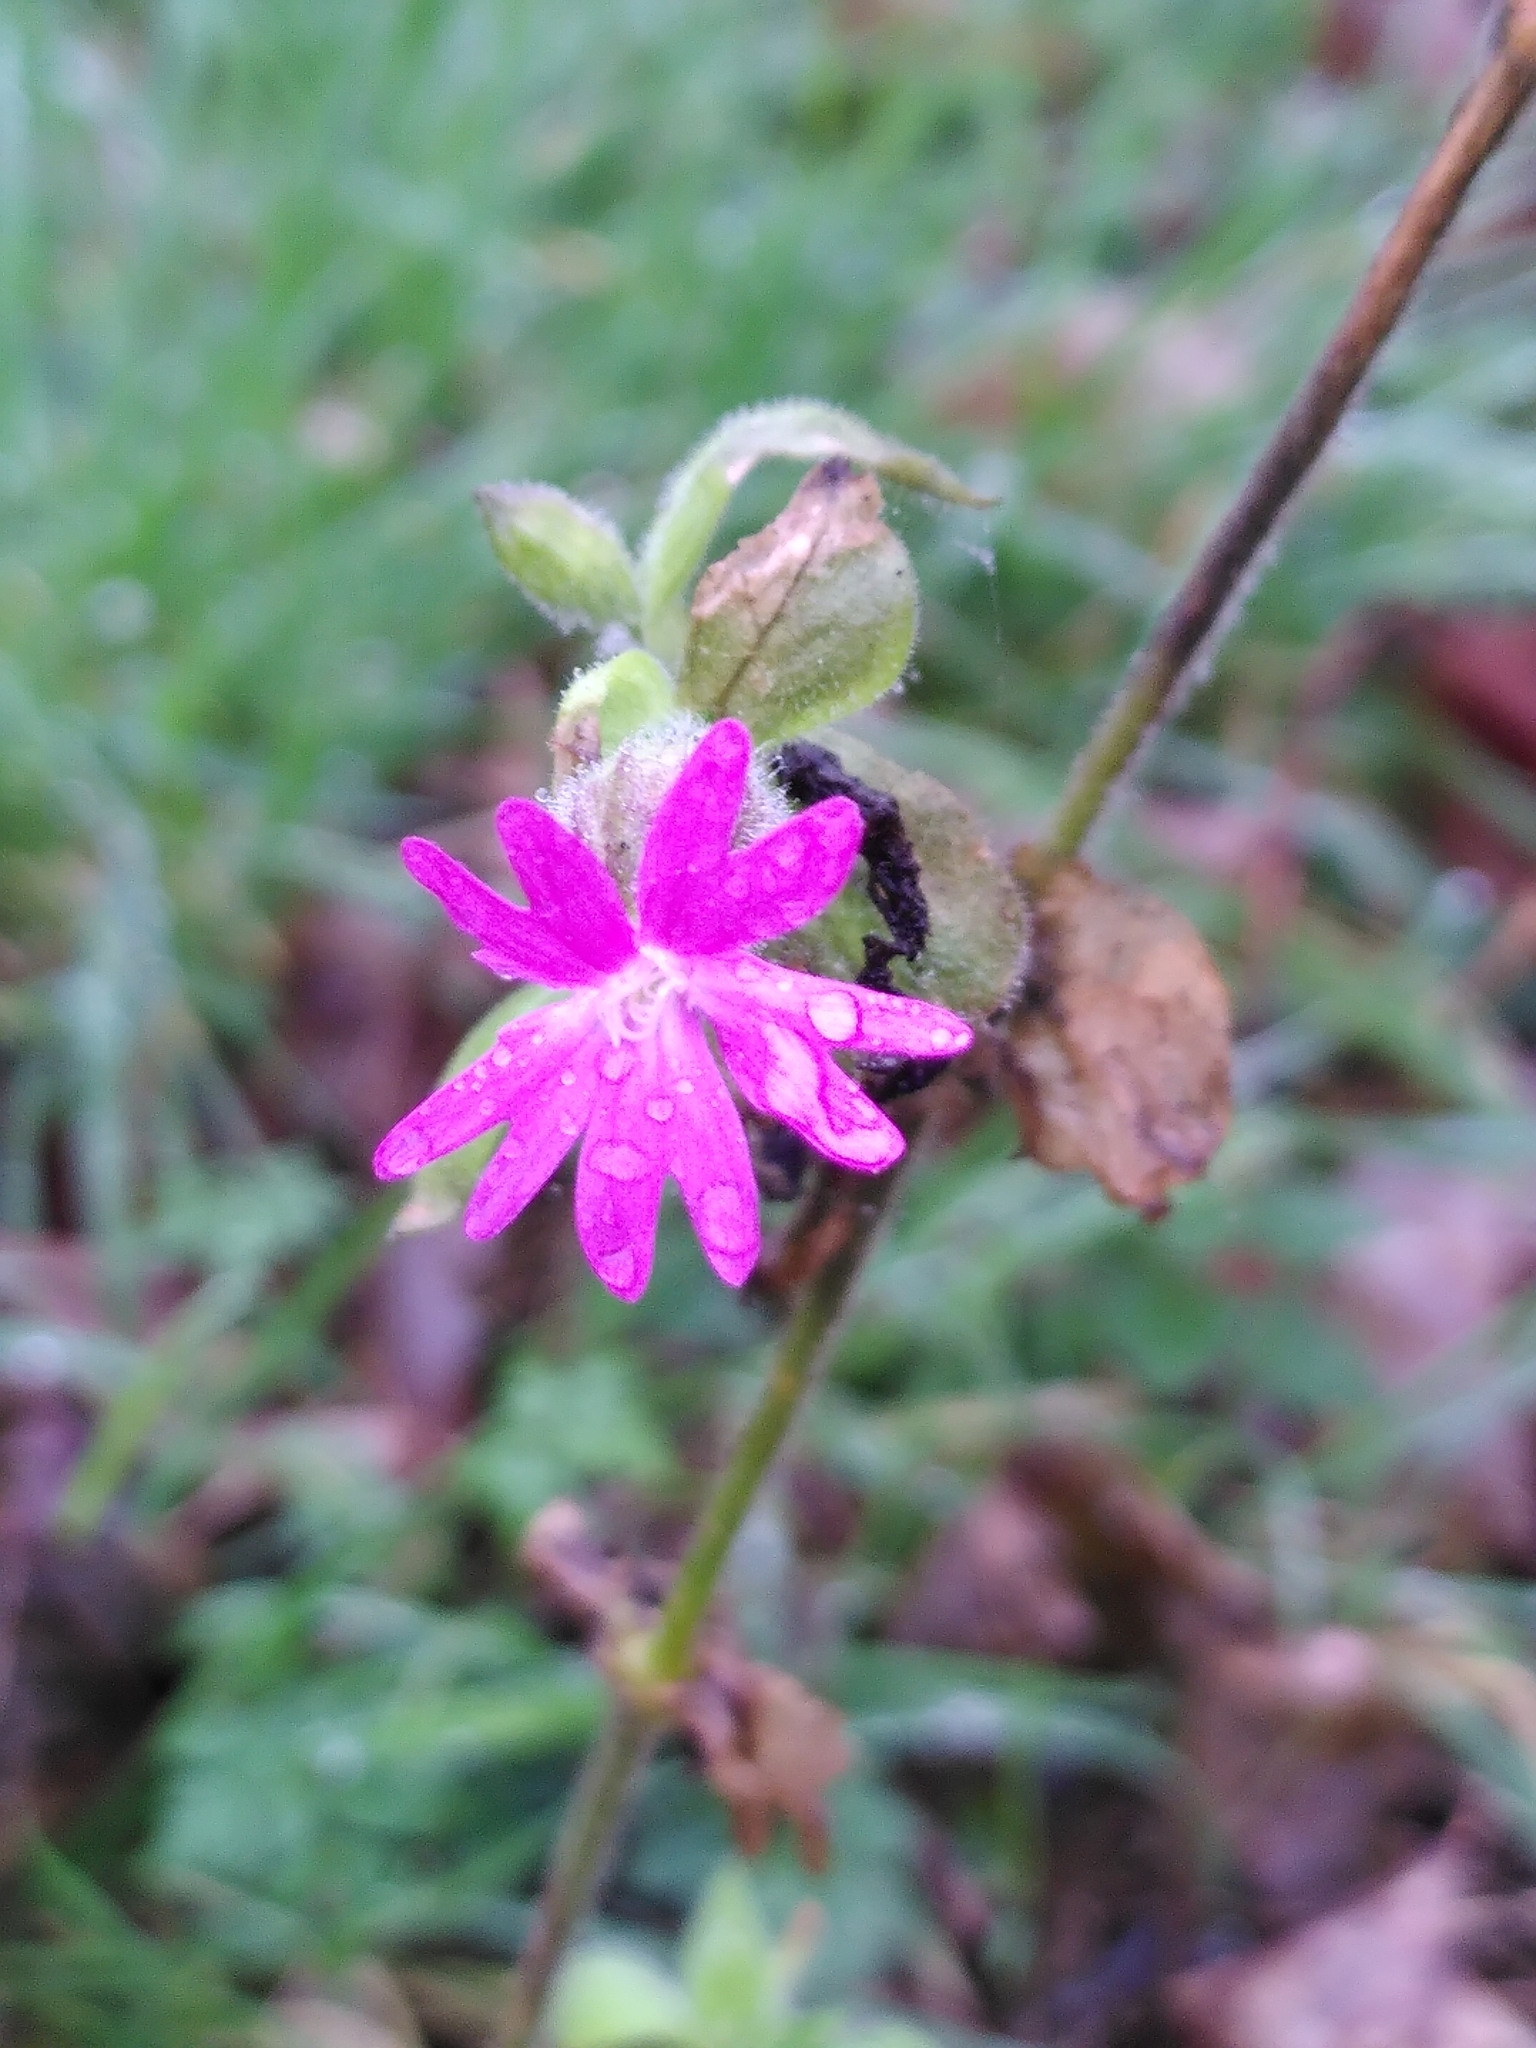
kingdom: Plantae
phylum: Tracheophyta
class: Magnoliopsida
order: Caryophyllales
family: Caryophyllaceae
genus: Silene
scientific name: Silene dioica
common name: Red campion
